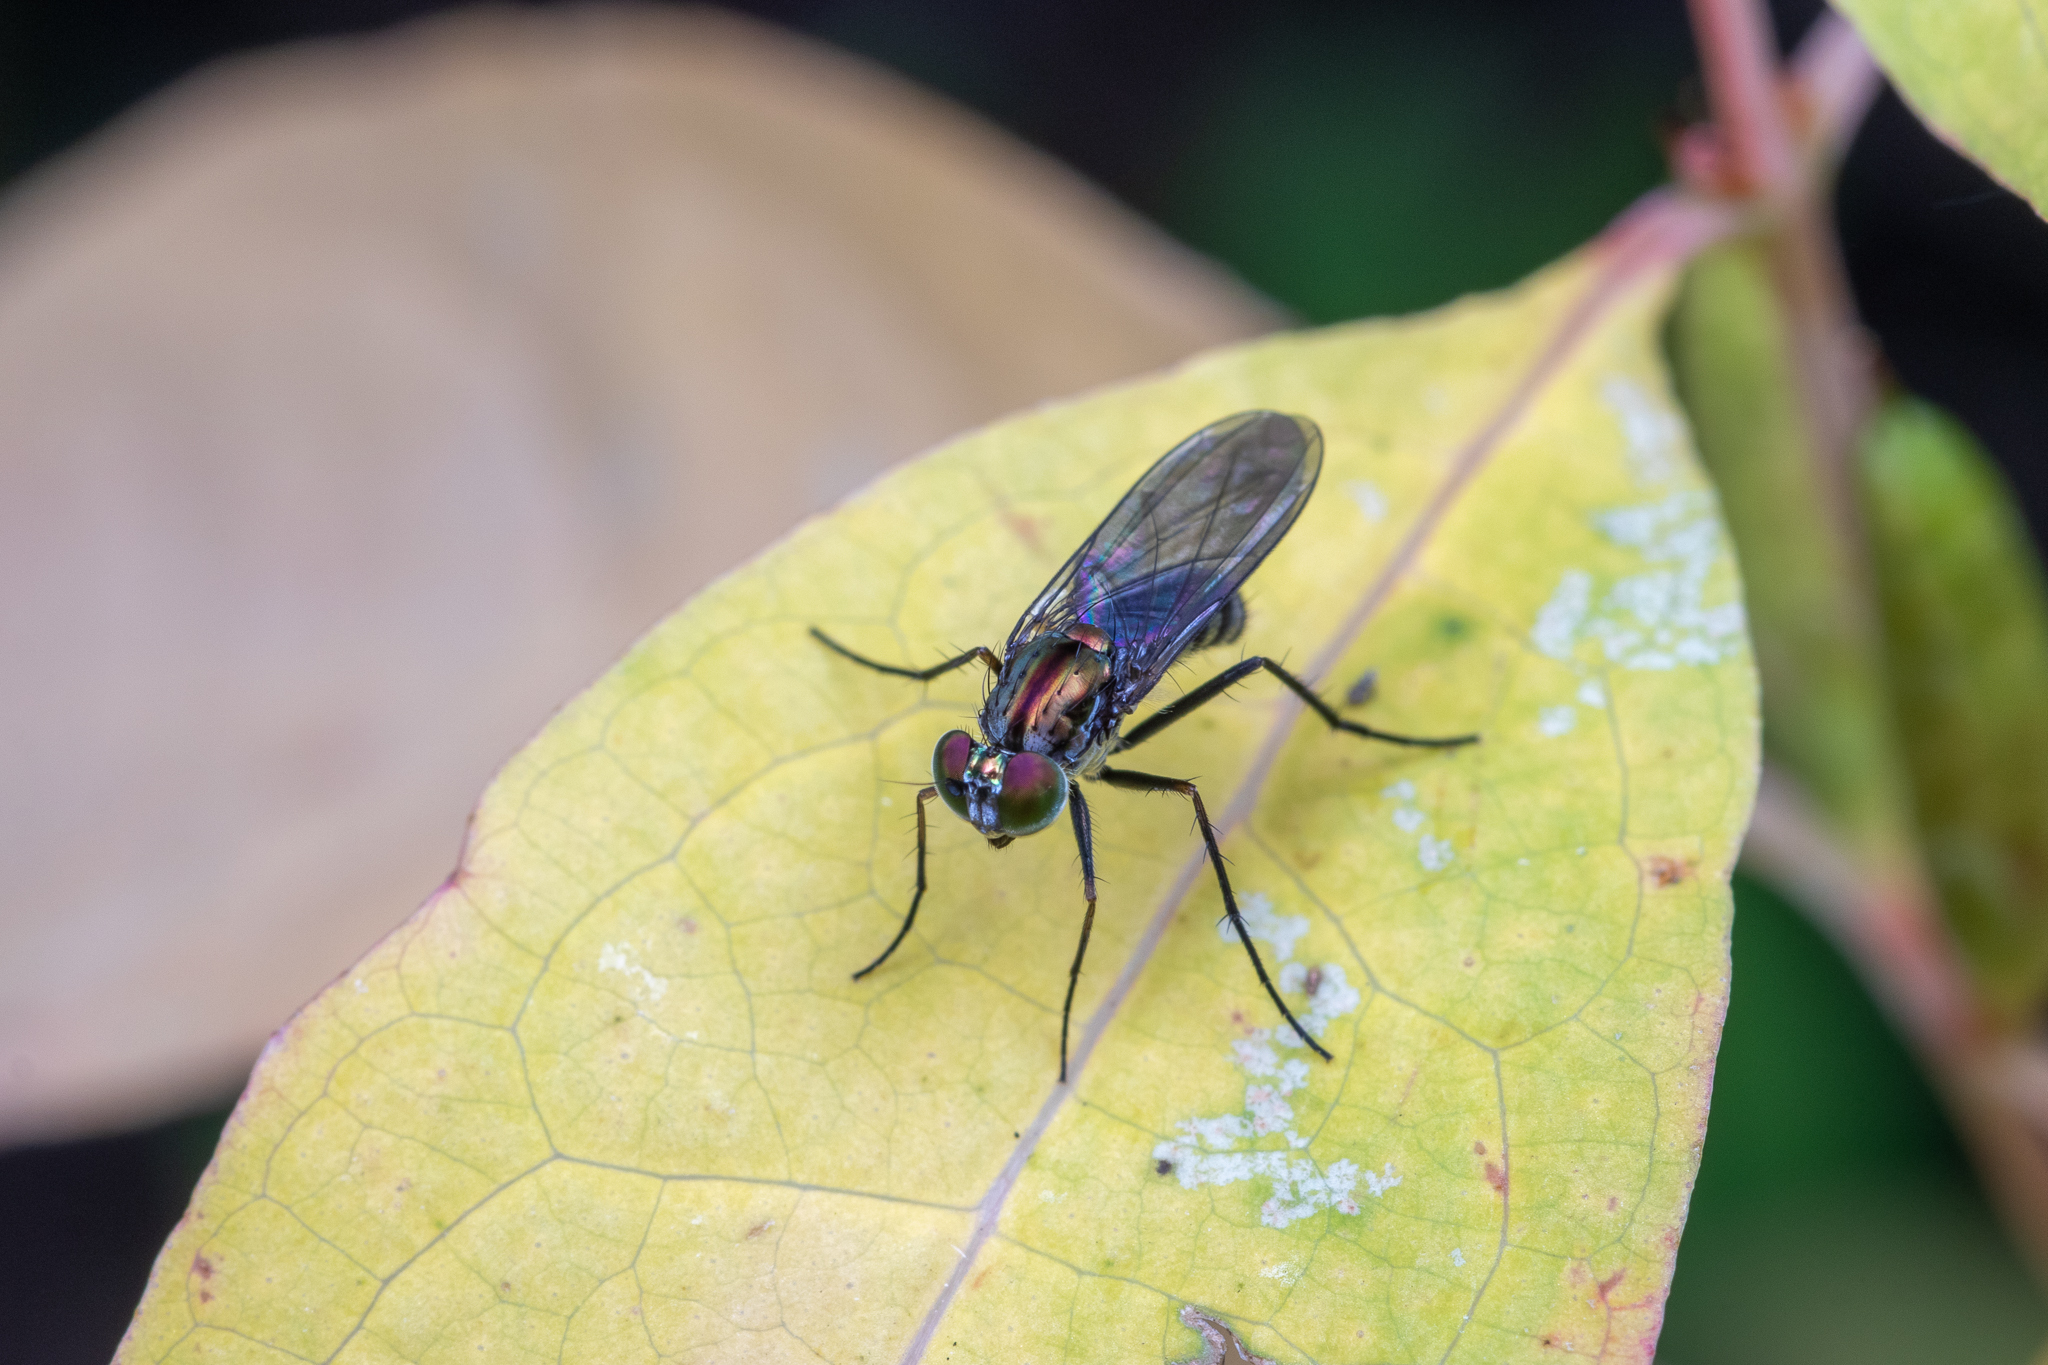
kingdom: Animalia
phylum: Arthropoda
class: Insecta
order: Diptera
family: Dolichopodidae
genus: Plagioneurus
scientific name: Plagioneurus univittatus
